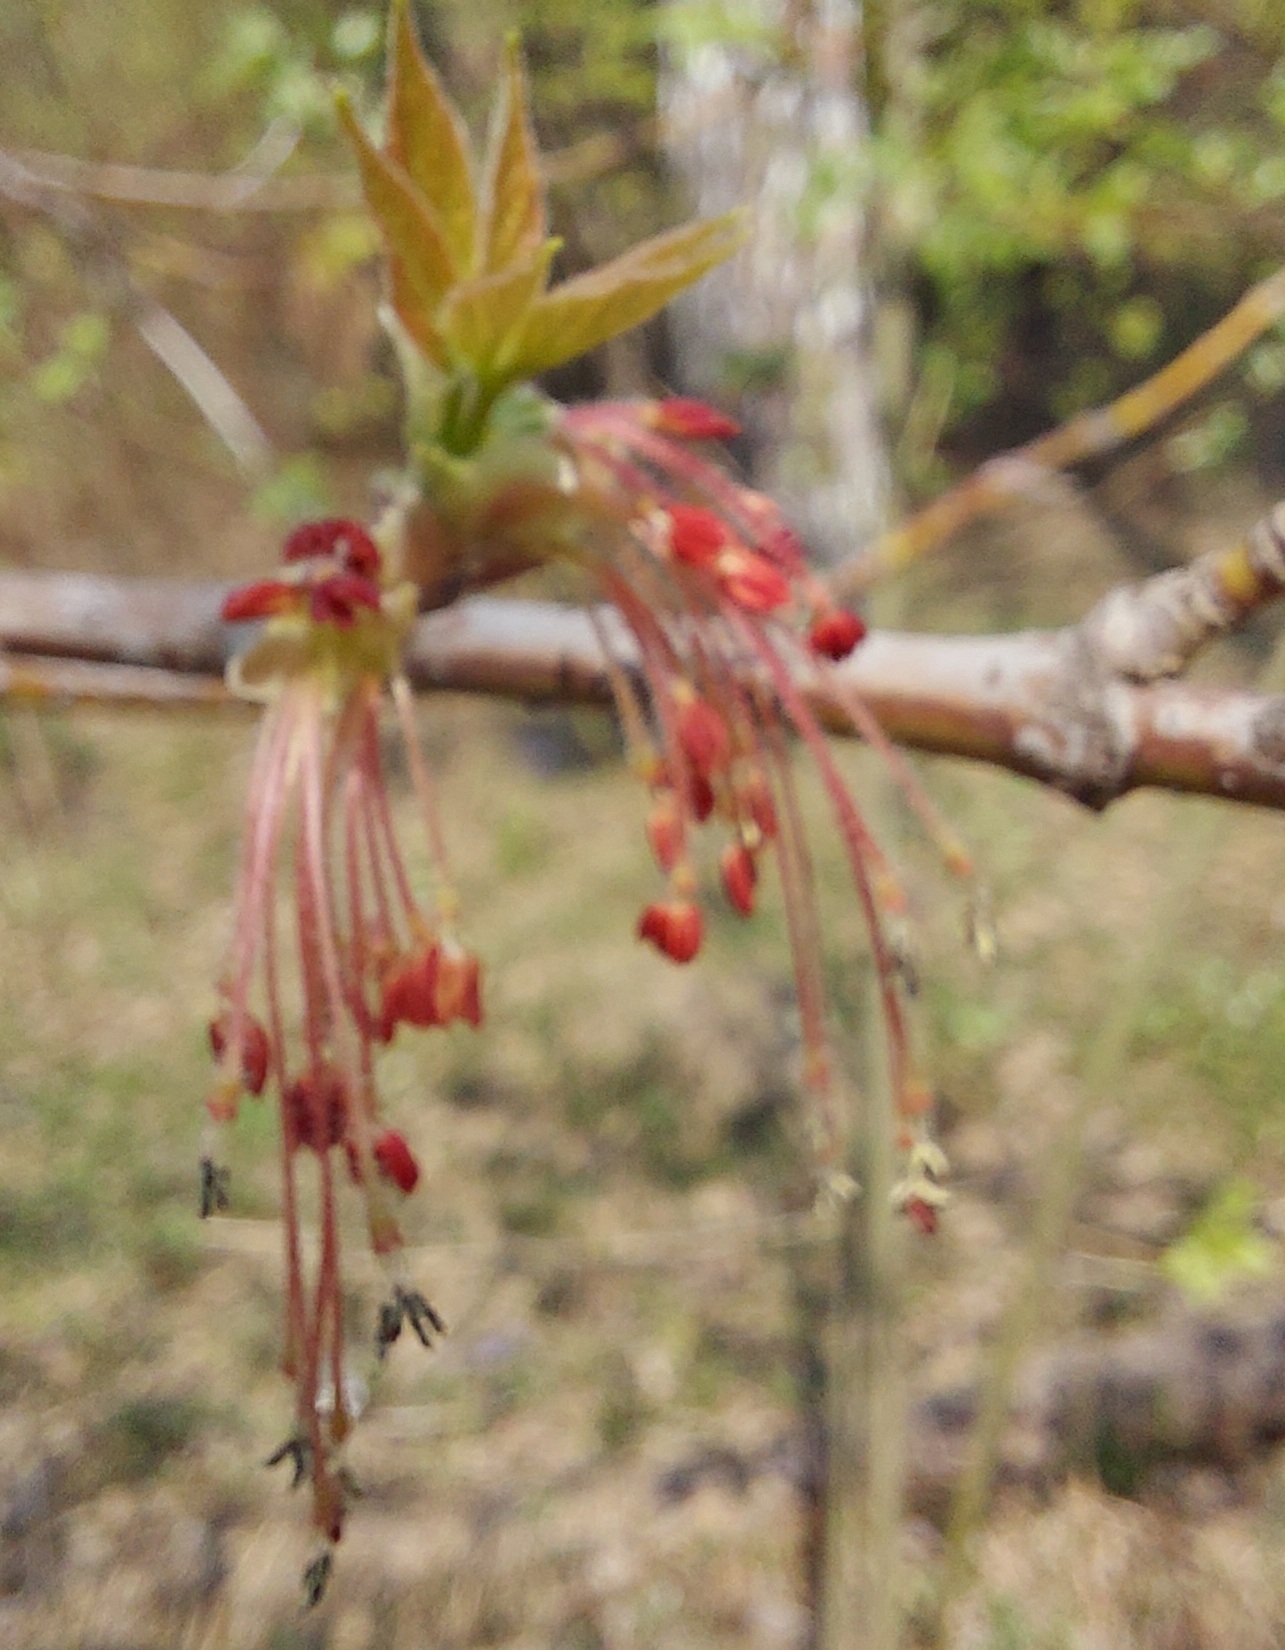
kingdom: Plantae
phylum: Tracheophyta
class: Magnoliopsida
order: Sapindales
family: Sapindaceae
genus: Acer
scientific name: Acer negundo
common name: Ashleaf maple
